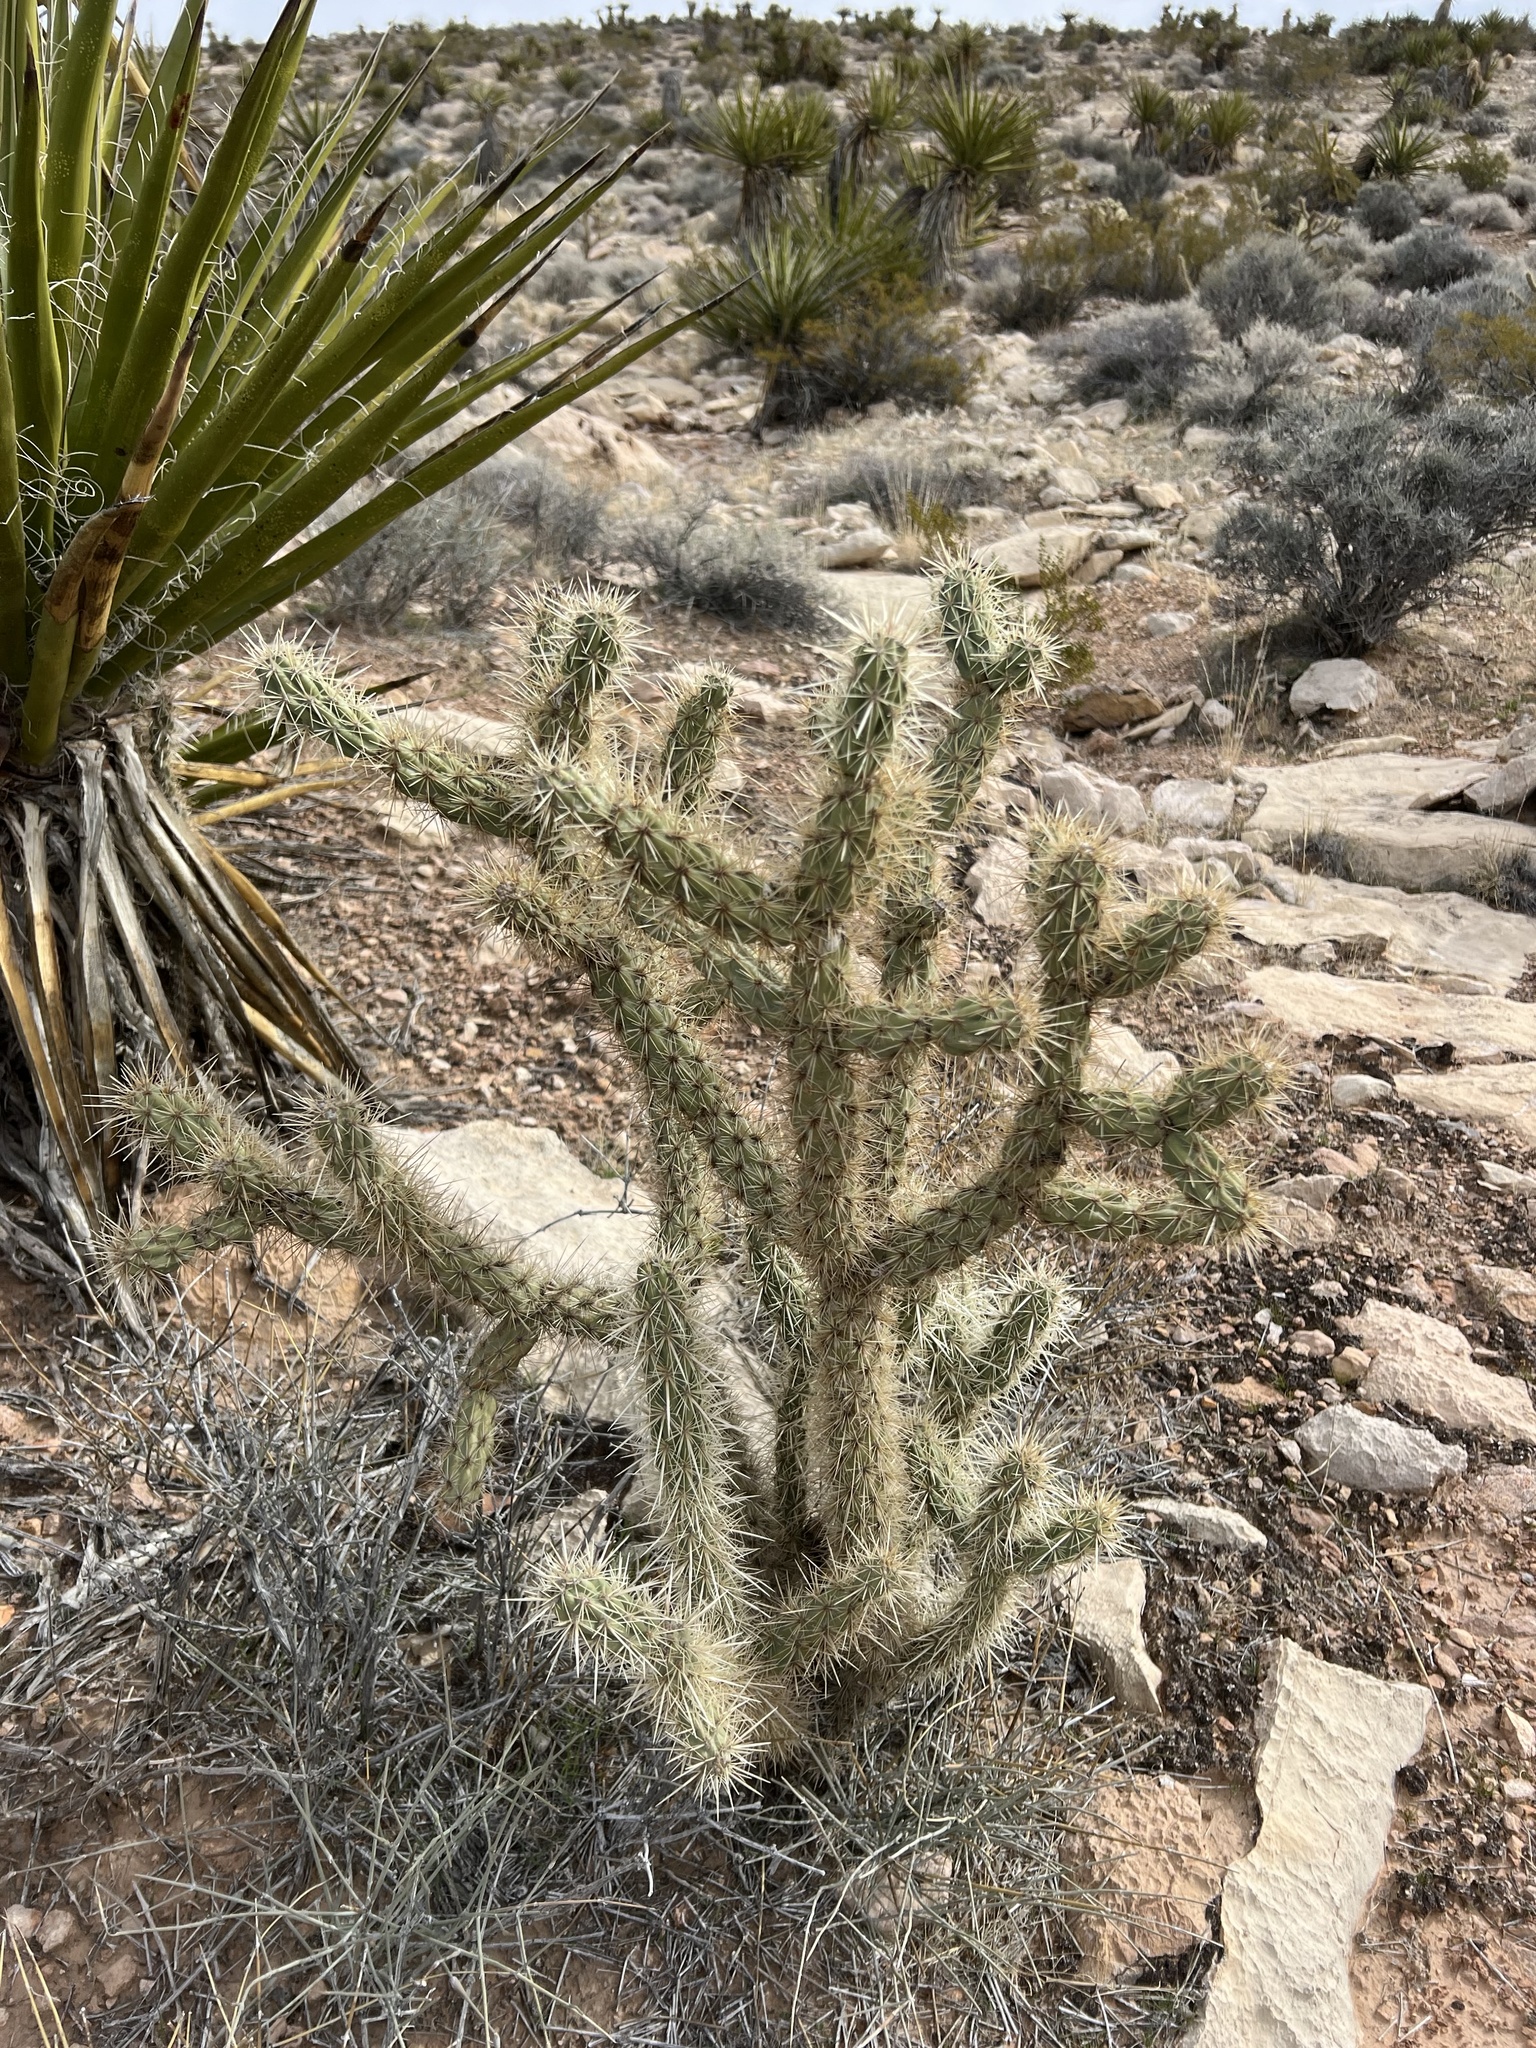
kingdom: Plantae
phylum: Tracheophyta
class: Magnoliopsida
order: Caryophyllales
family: Cactaceae
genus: Cylindropuntia
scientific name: Cylindropuntia acanthocarpa
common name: Buckhorn cholla
